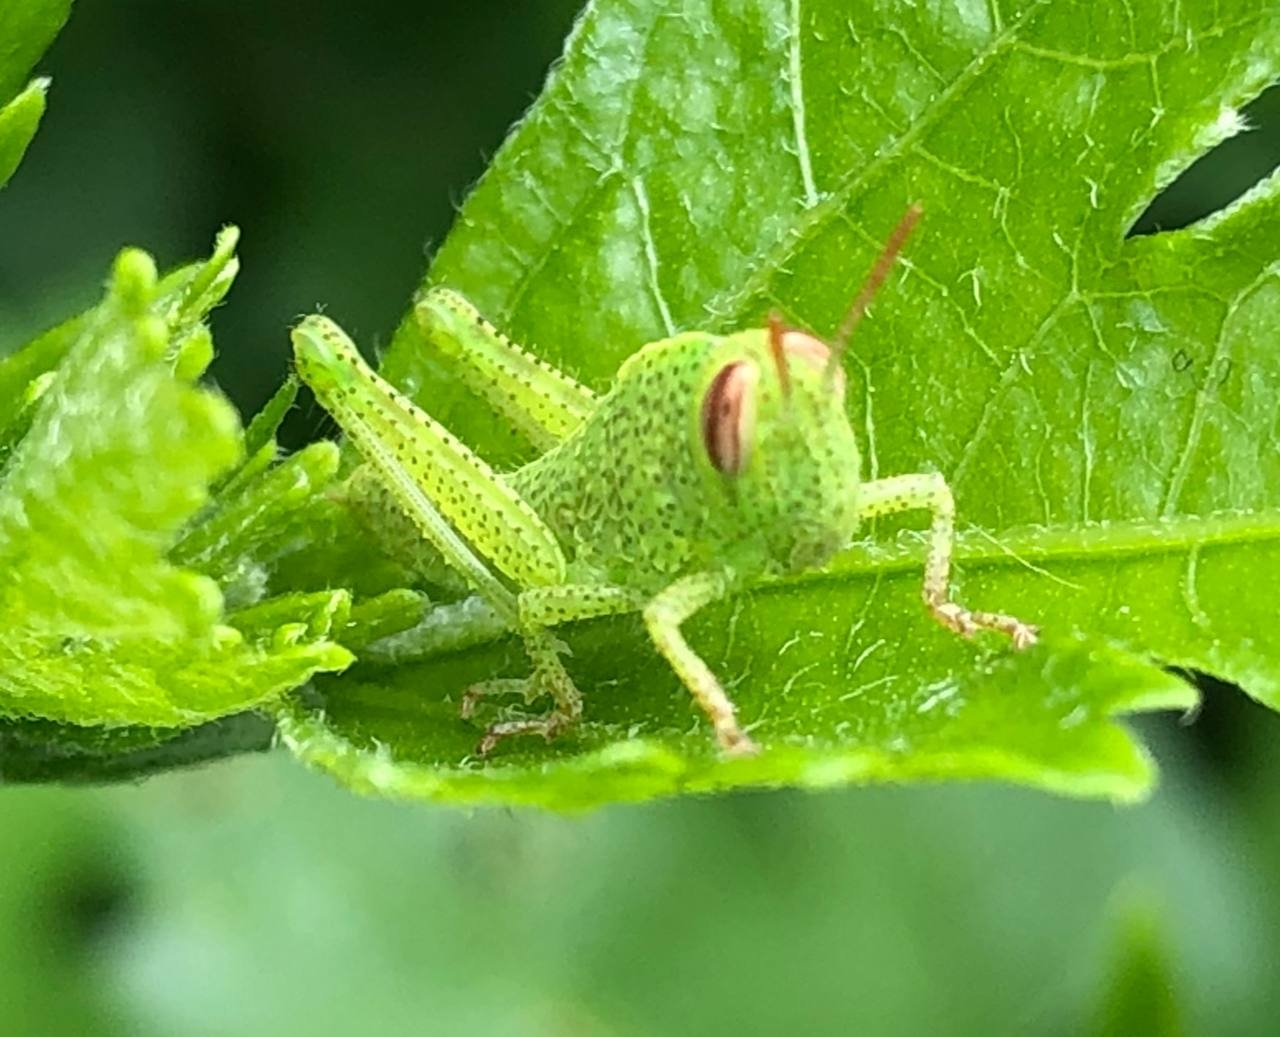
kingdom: Animalia
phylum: Arthropoda
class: Insecta
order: Orthoptera
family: Acrididae
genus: Anacridium
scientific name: Anacridium aegyptium
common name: Egyptian grasshopper
